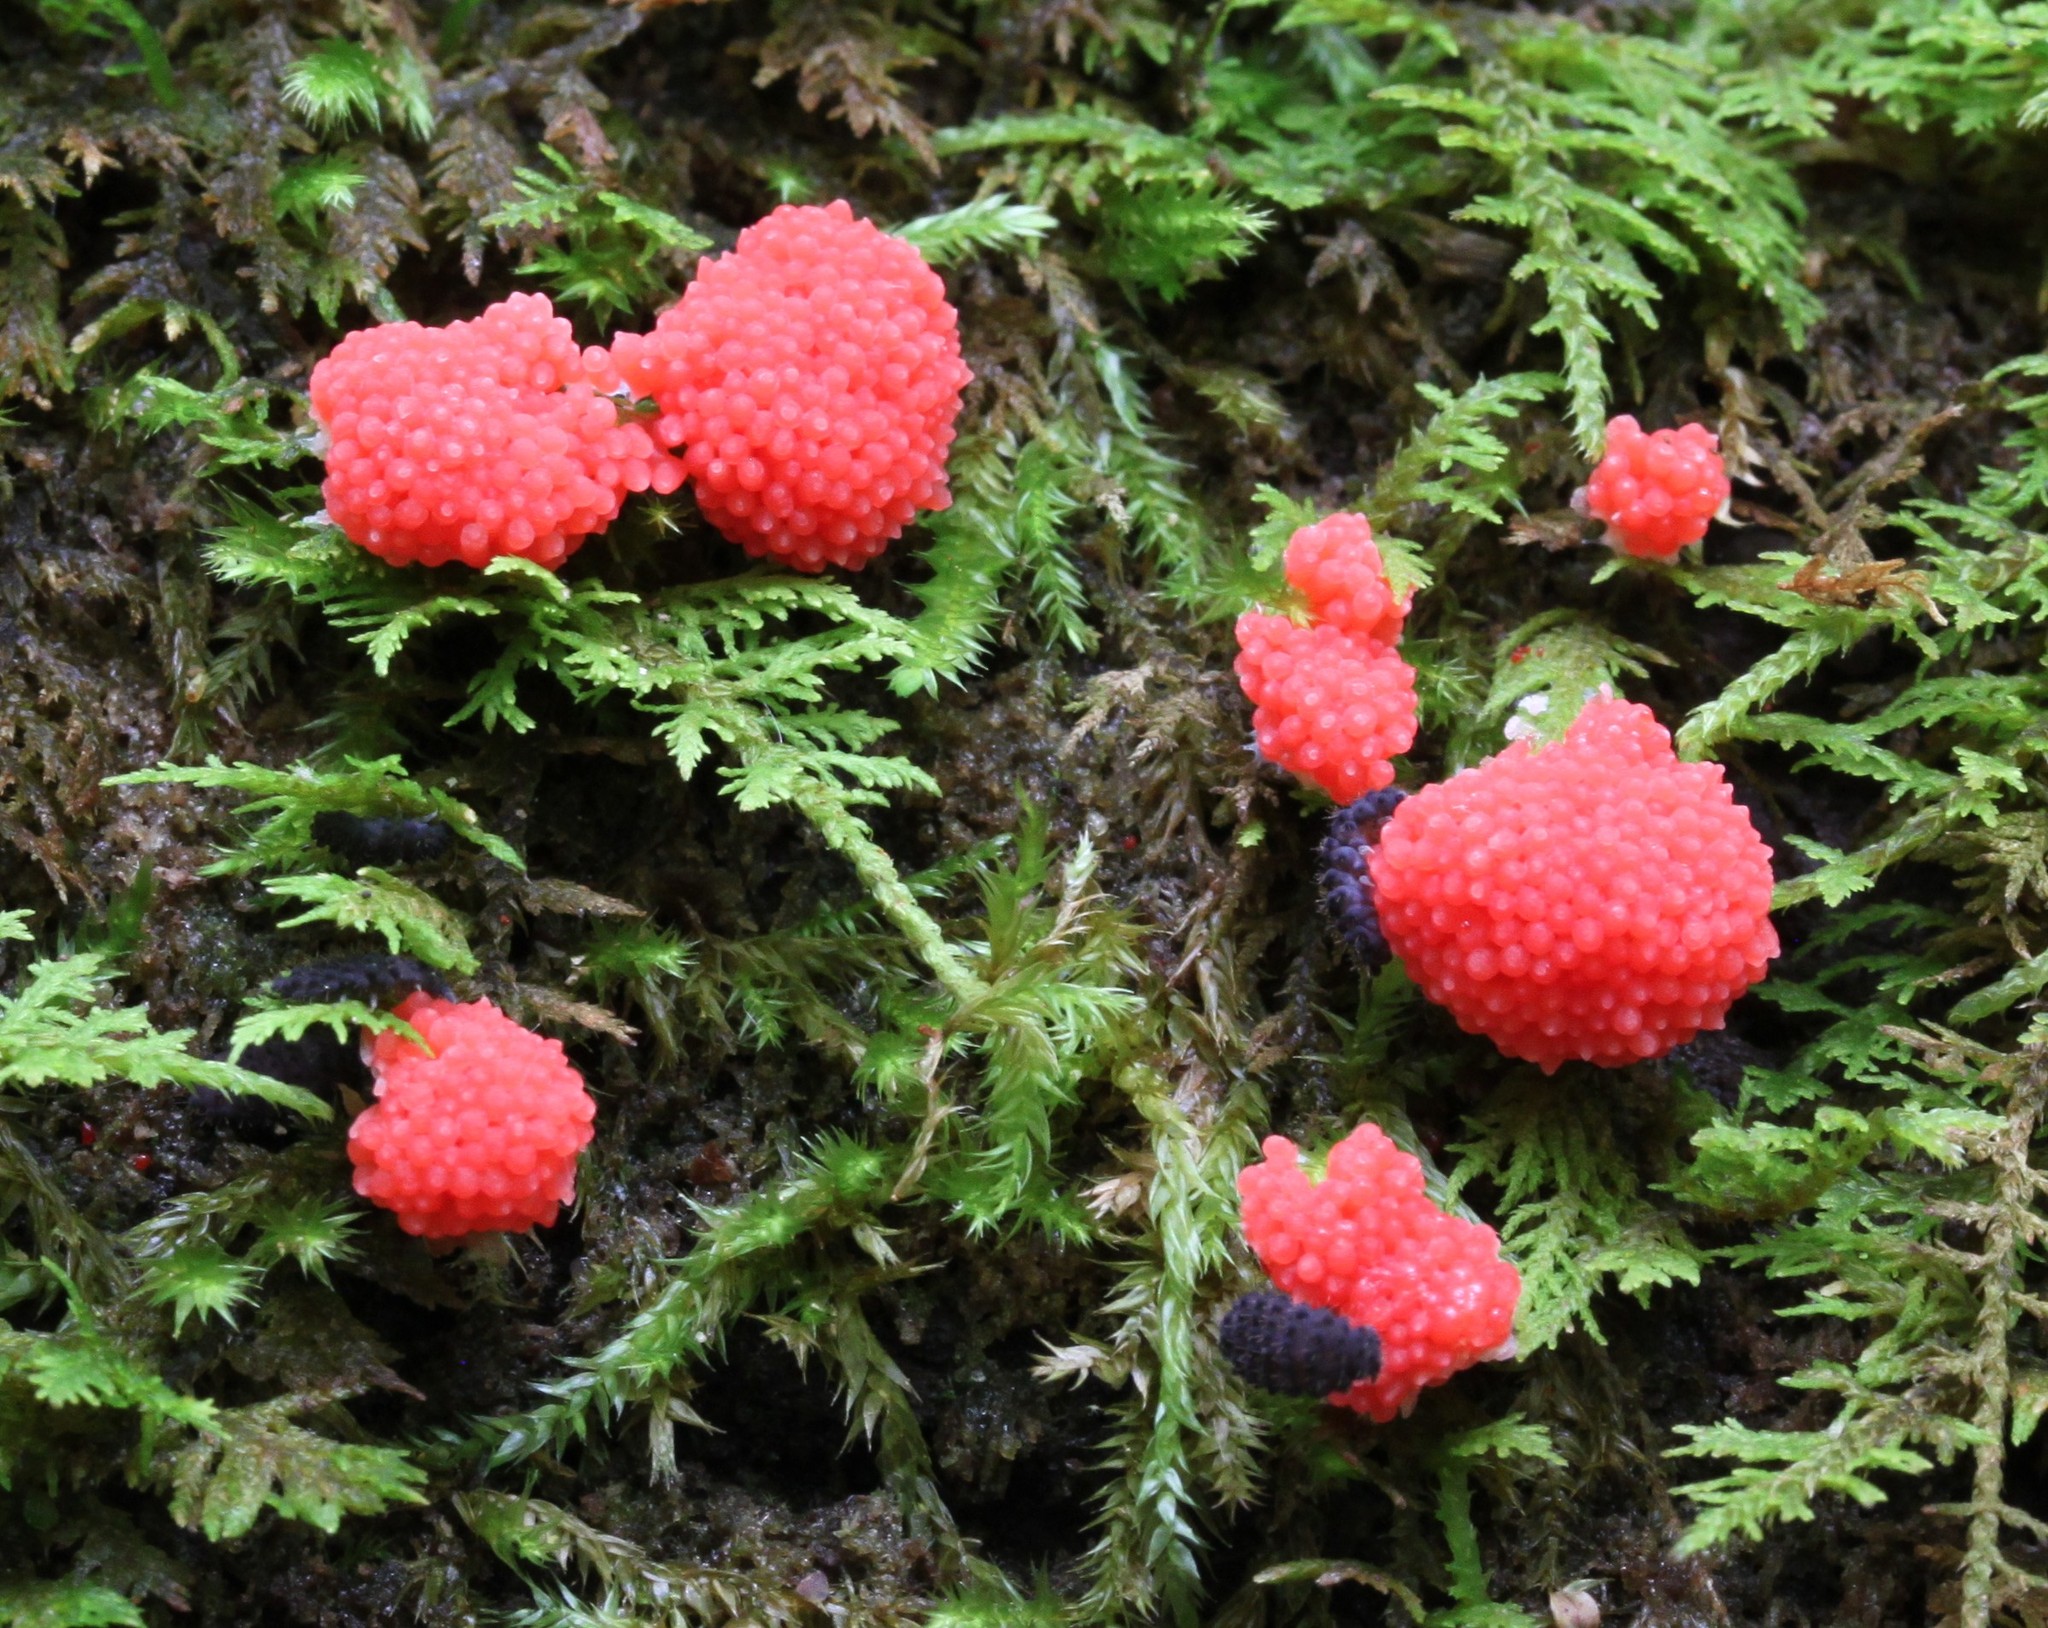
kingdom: Protozoa
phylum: Mycetozoa
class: Myxomycetes
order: Cribrariales
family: Tubiferaceae
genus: Tubifera
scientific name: Tubifera ferruginosa
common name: Red raspberry slime mold
